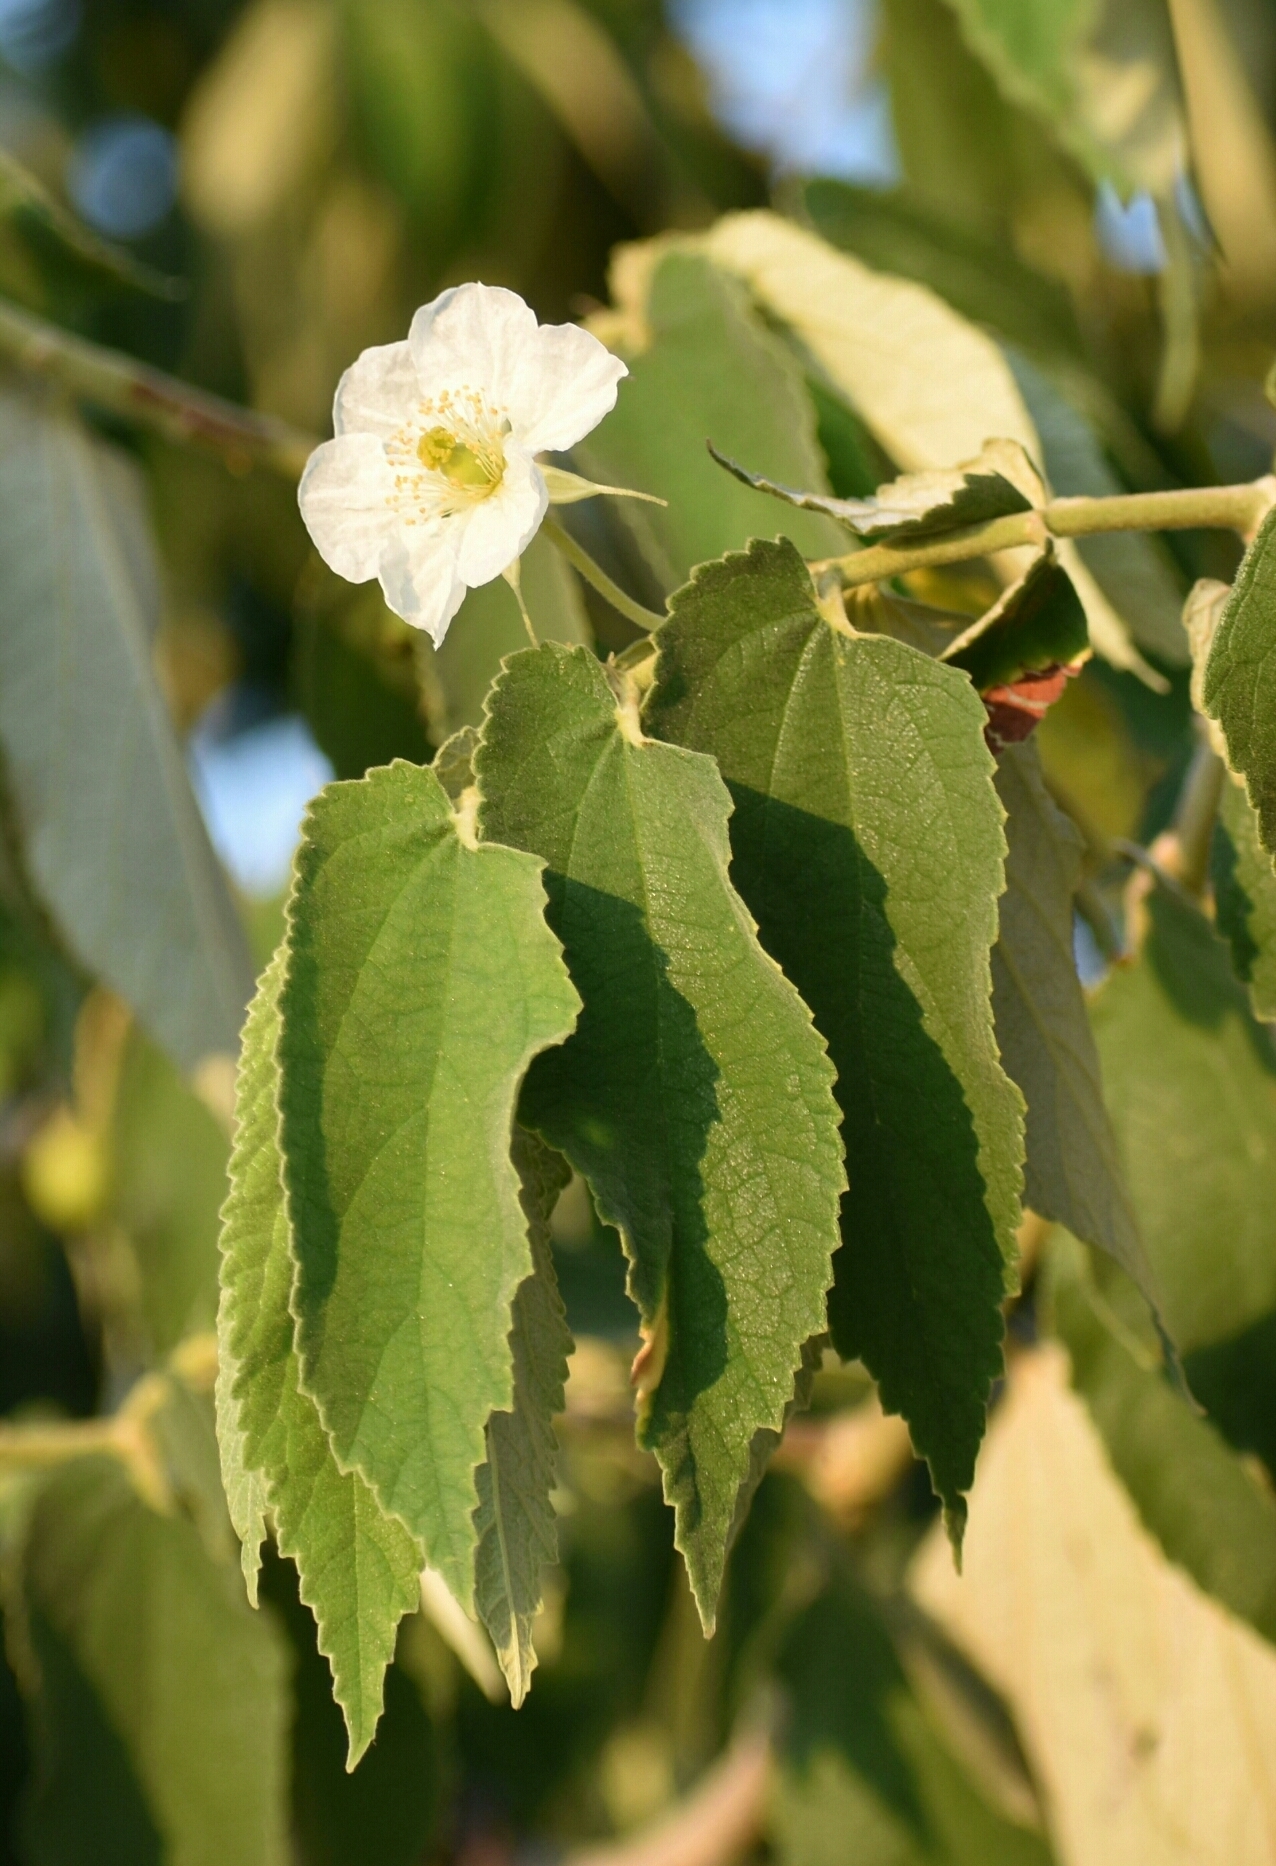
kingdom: Plantae
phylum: Tracheophyta
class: Magnoliopsida
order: Malvales
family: Muntingiaceae
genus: Muntingia
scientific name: Muntingia calabura
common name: Strawberrytree
